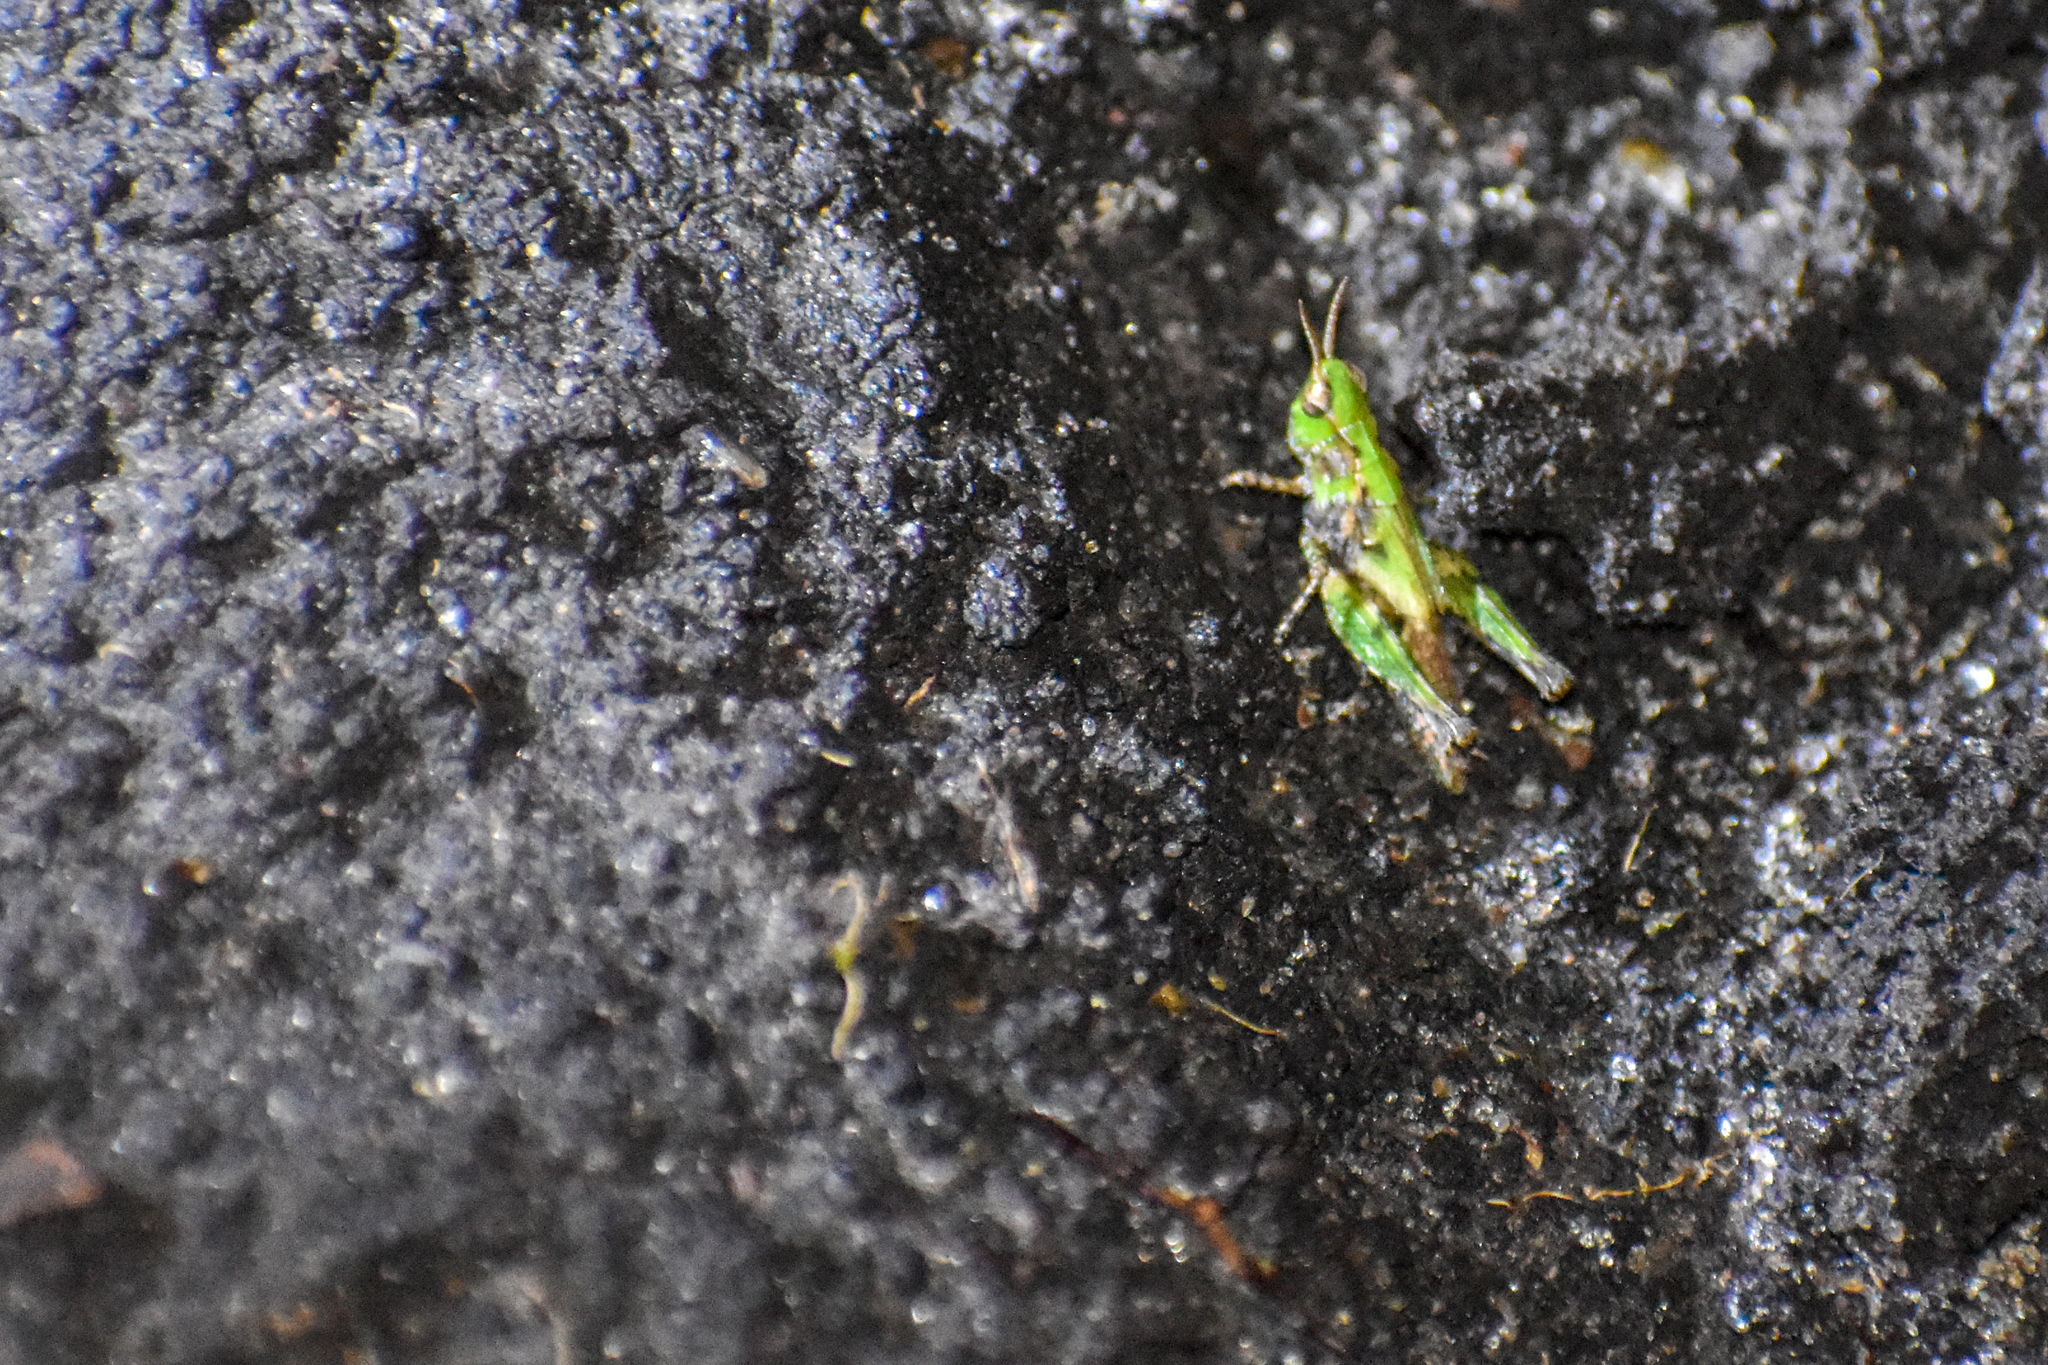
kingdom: Animalia
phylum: Arthropoda
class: Insecta
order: Orthoptera
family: Acrididae
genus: Orphulella
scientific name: Orphulella punctata
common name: Slant-faced grasshopper
